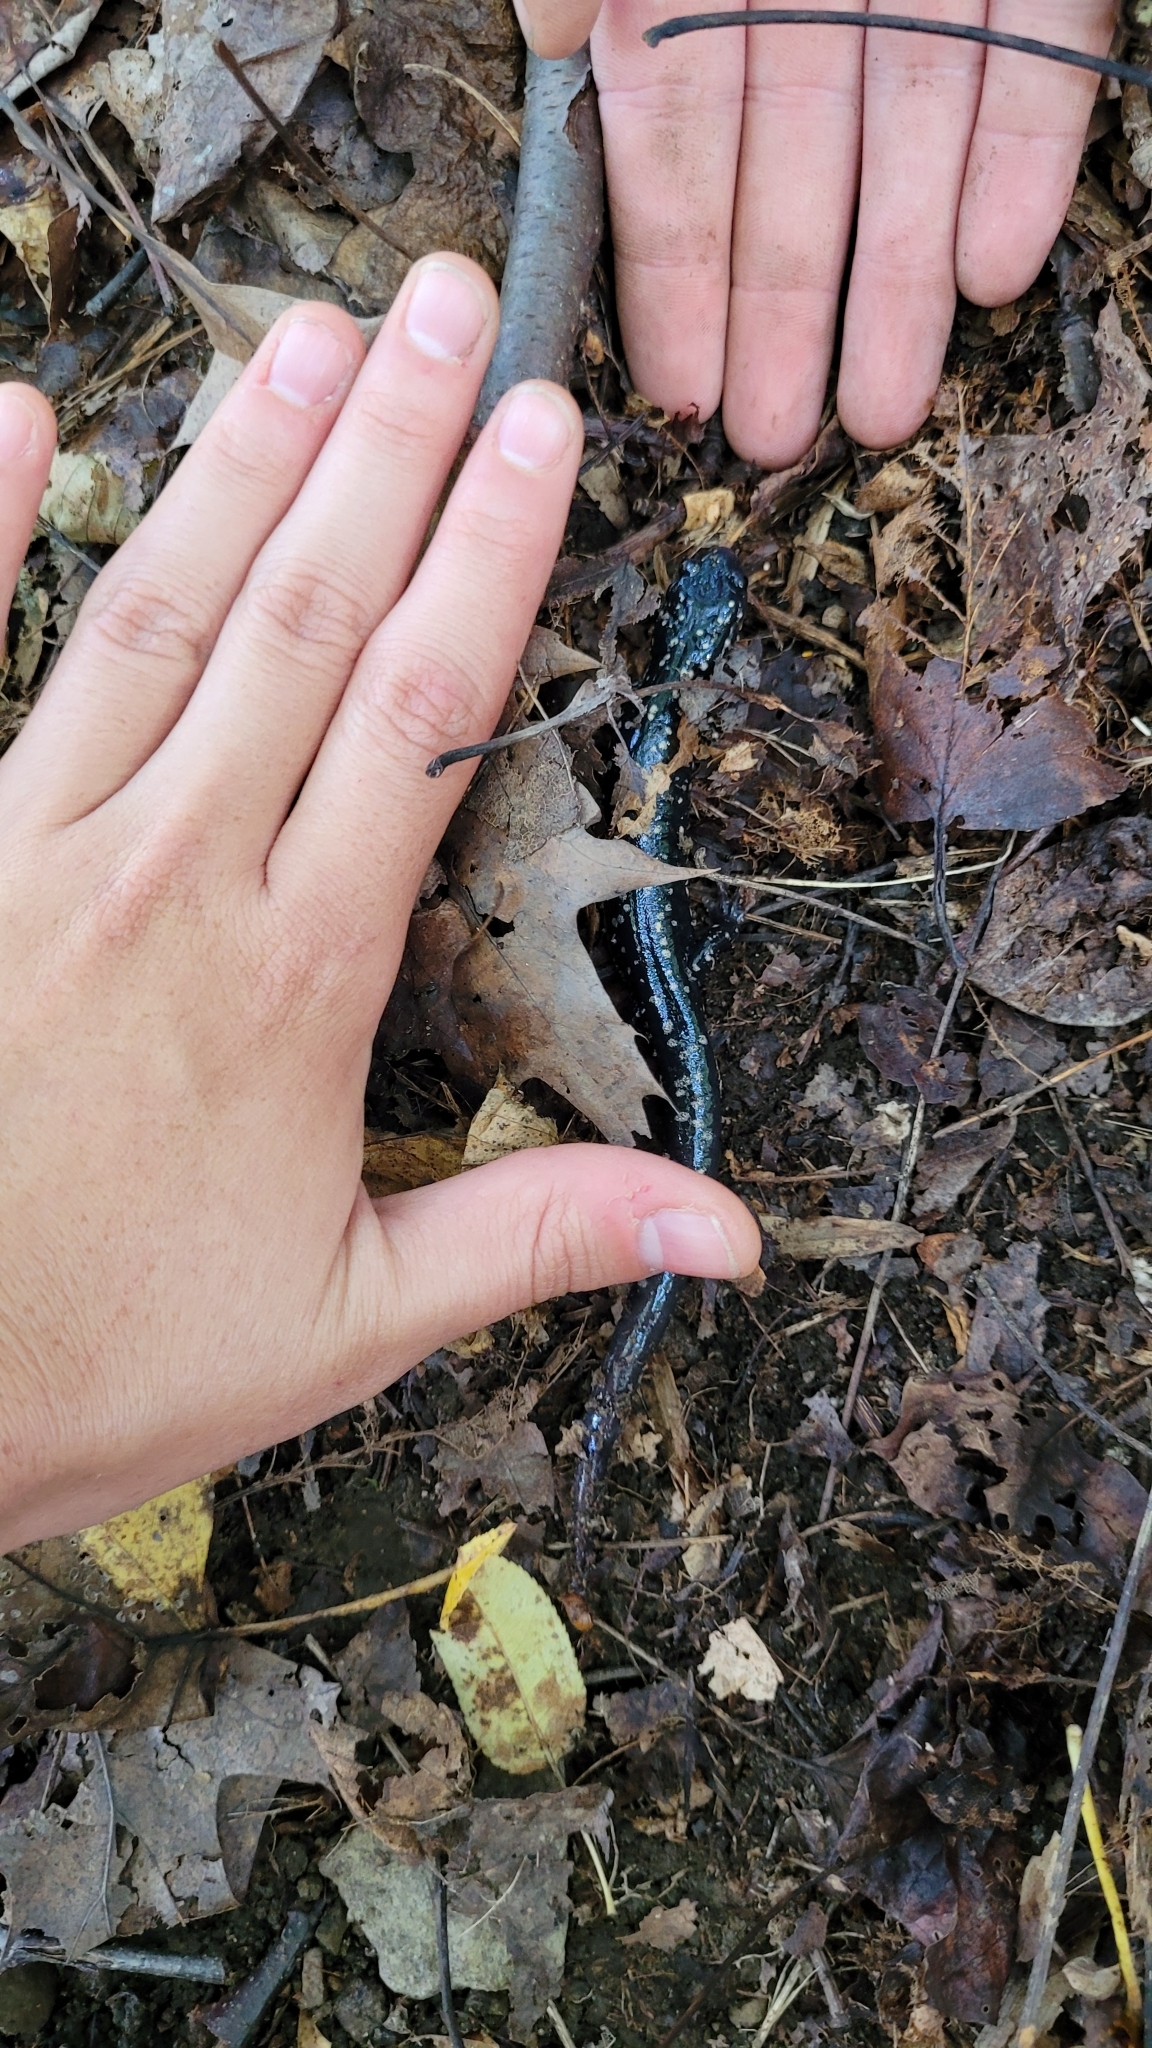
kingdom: Animalia
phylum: Chordata
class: Amphibia
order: Caudata
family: Plethodontidae
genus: Plethodon
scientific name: Plethodon glutinosus
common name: Northern slimy salamander
